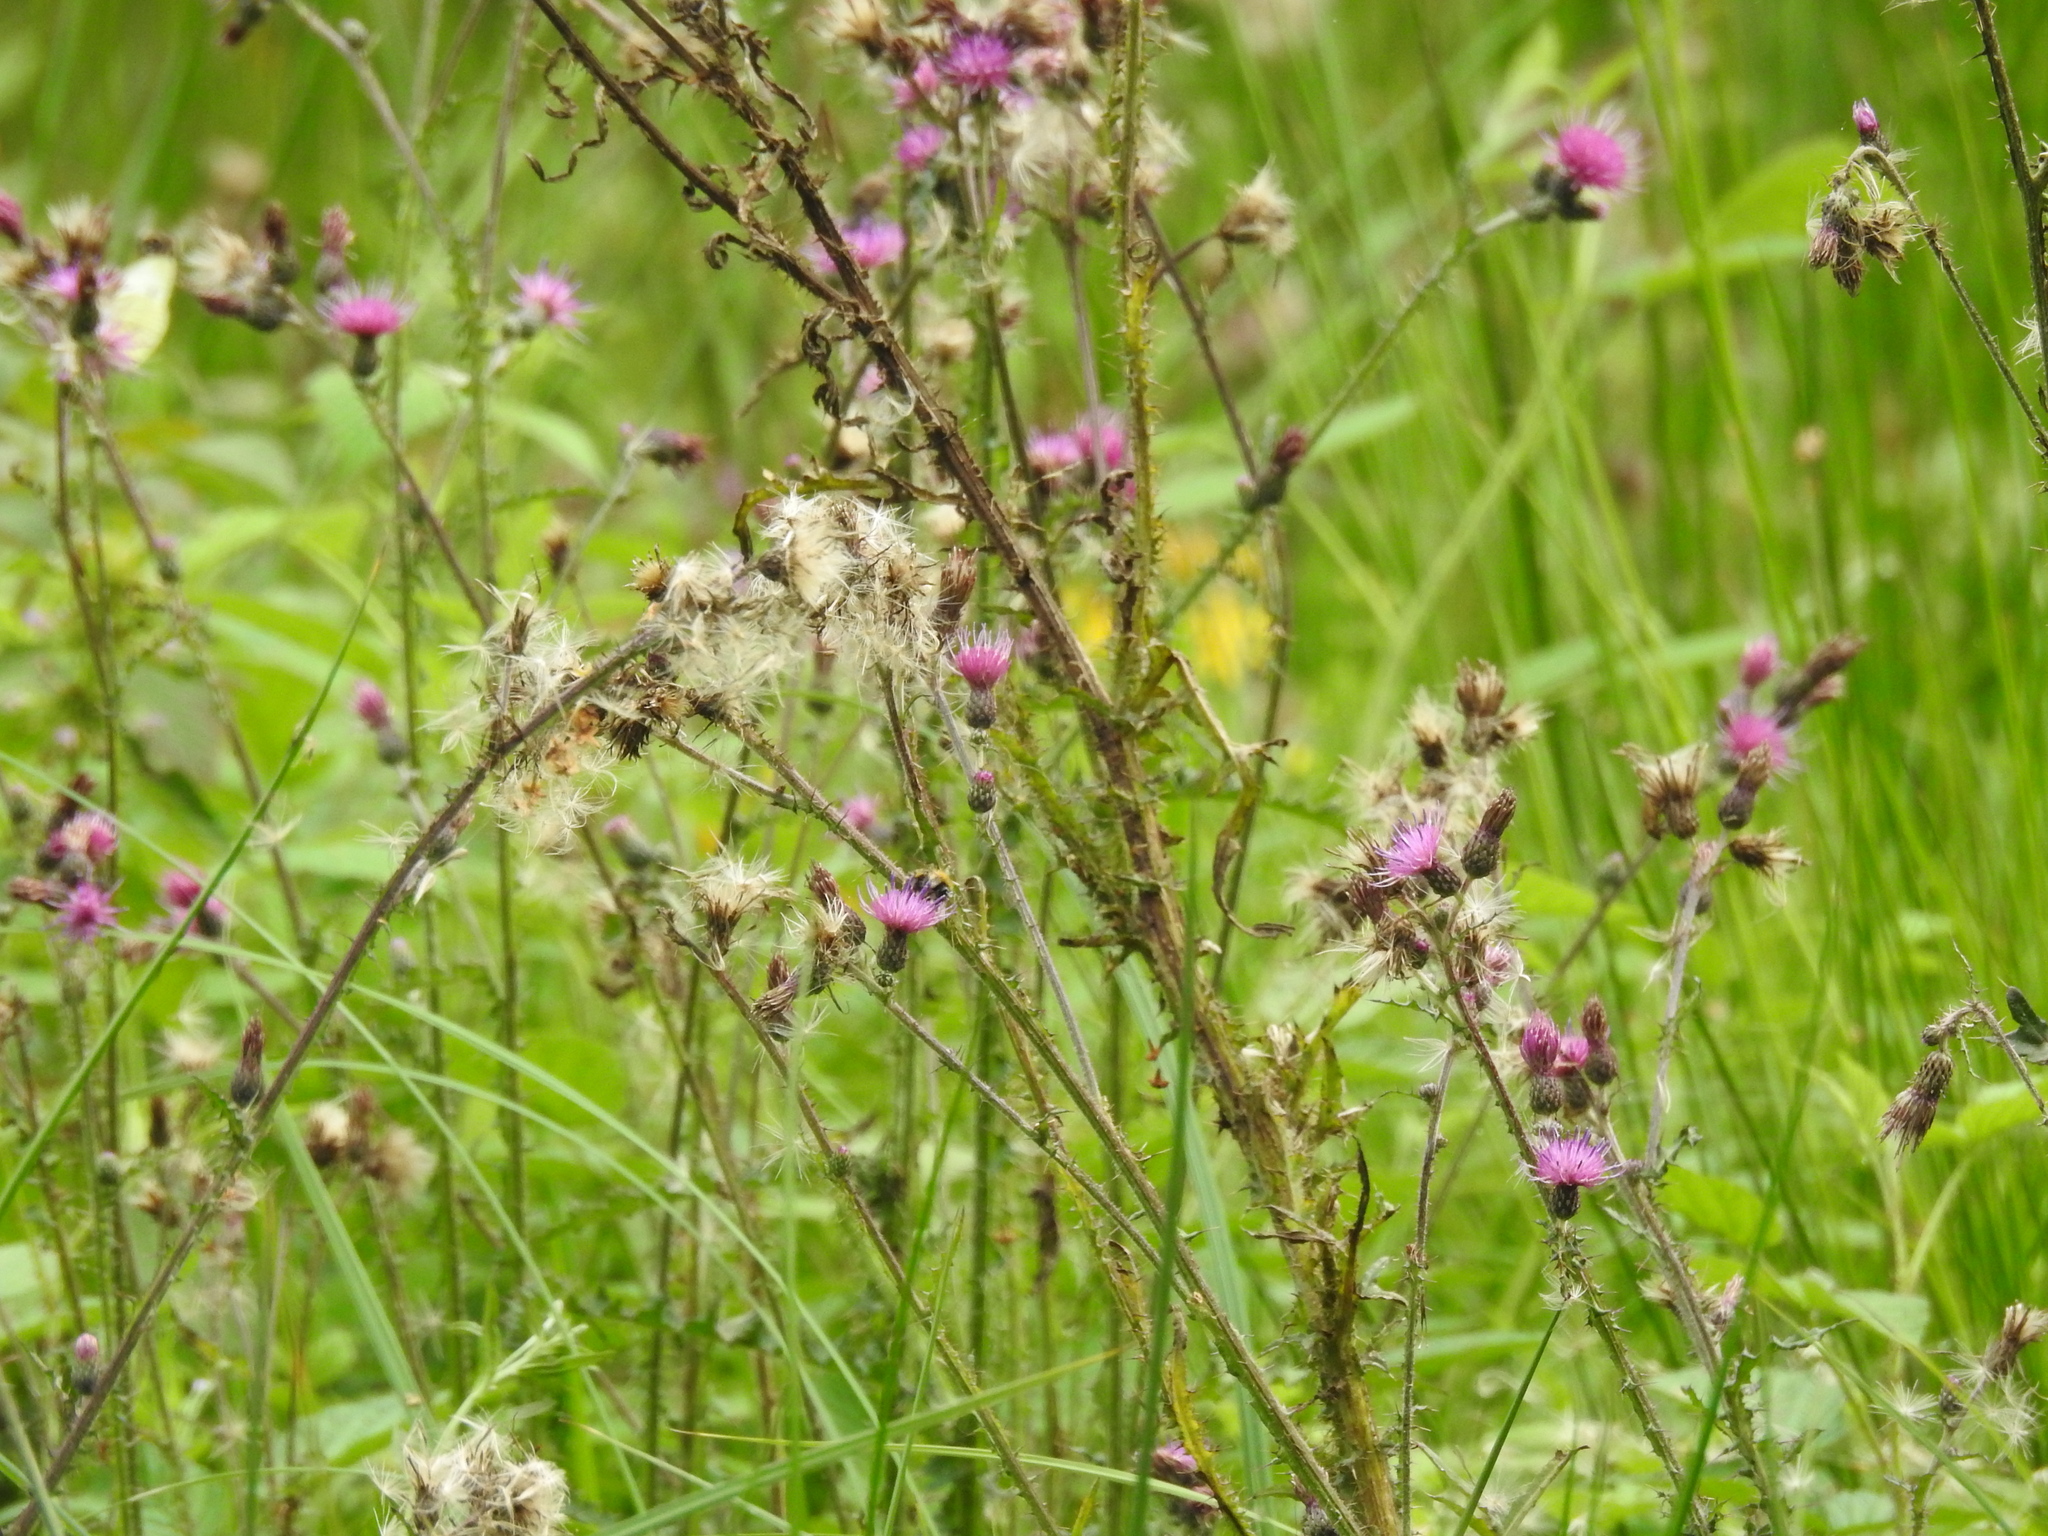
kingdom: Plantae
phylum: Tracheophyta
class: Magnoliopsida
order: Asterales
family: Asteraceae
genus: Cirsium
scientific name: Cirsium palustre
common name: Marsh thistle
